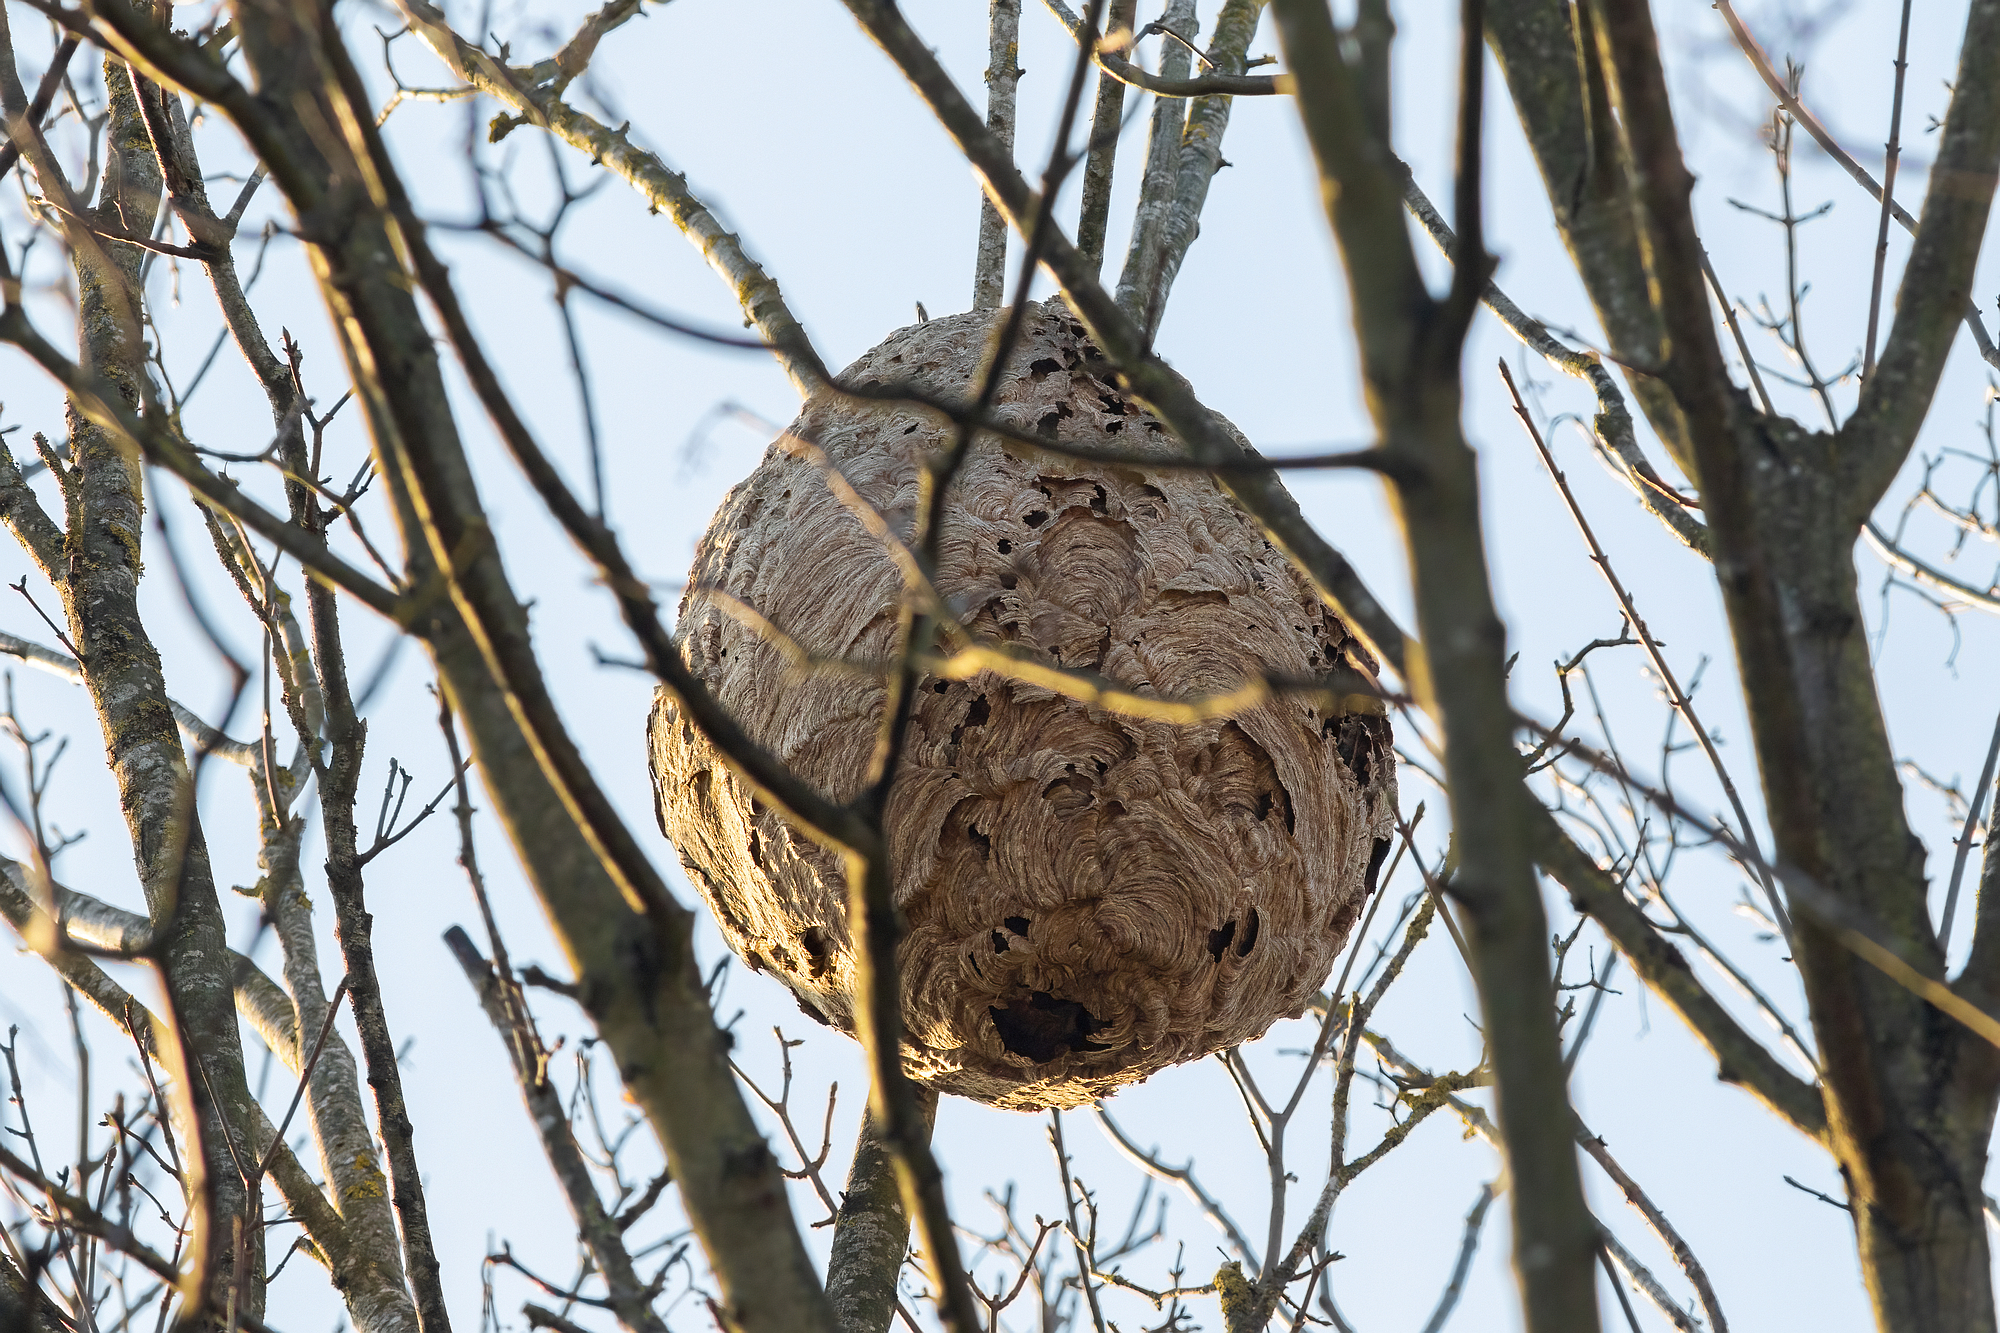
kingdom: Animalia
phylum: Arthropoda
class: Insecta
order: Hymenoptera
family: Vespidae
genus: Vespa
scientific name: Vespa velutina
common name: Asian hornet
